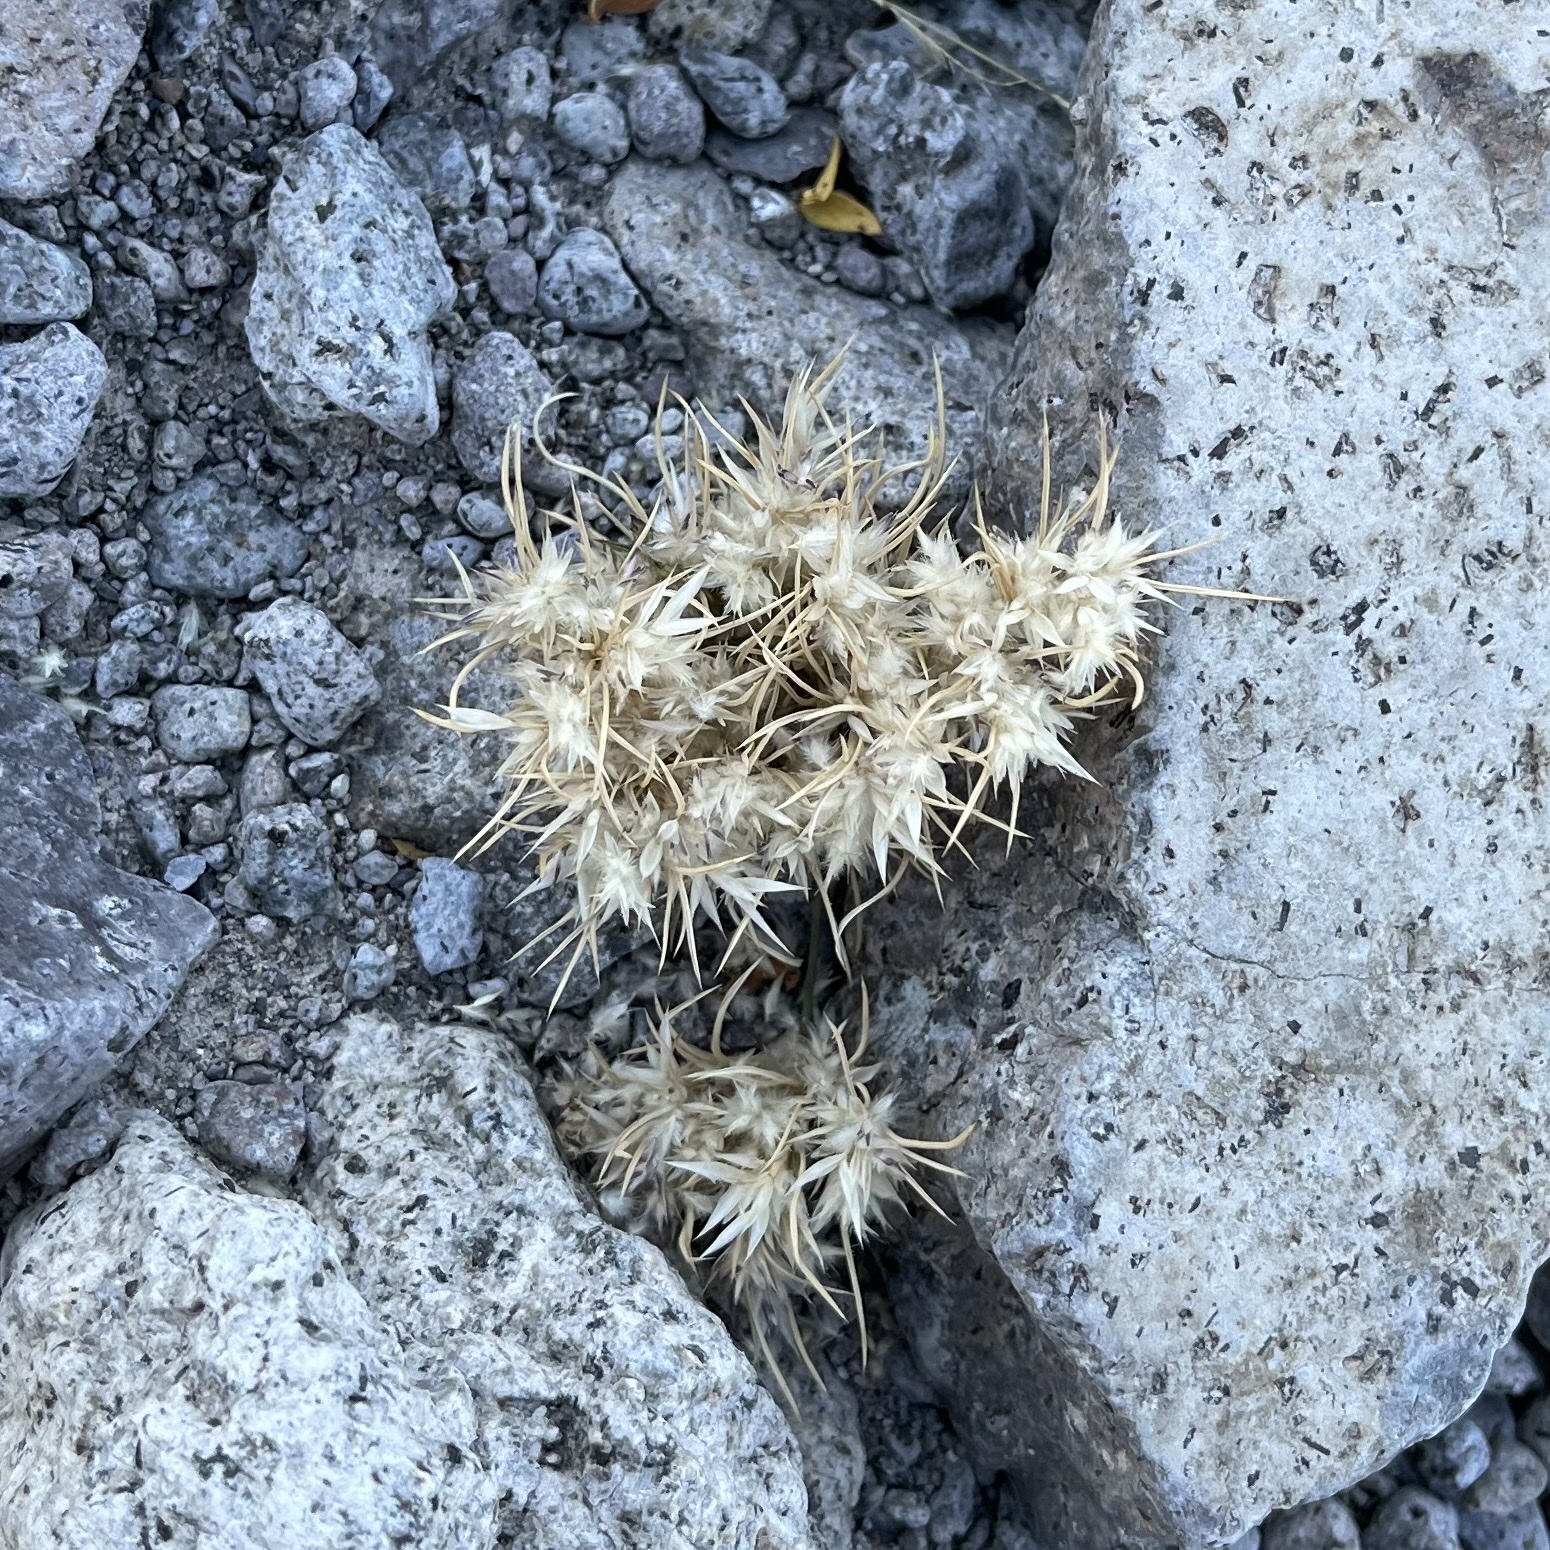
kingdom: Plantae
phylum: Tracheophyta
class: Liliopsida
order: Poales
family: Poaceae
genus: Dasyochloa
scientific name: Dasyochloa pulchella
